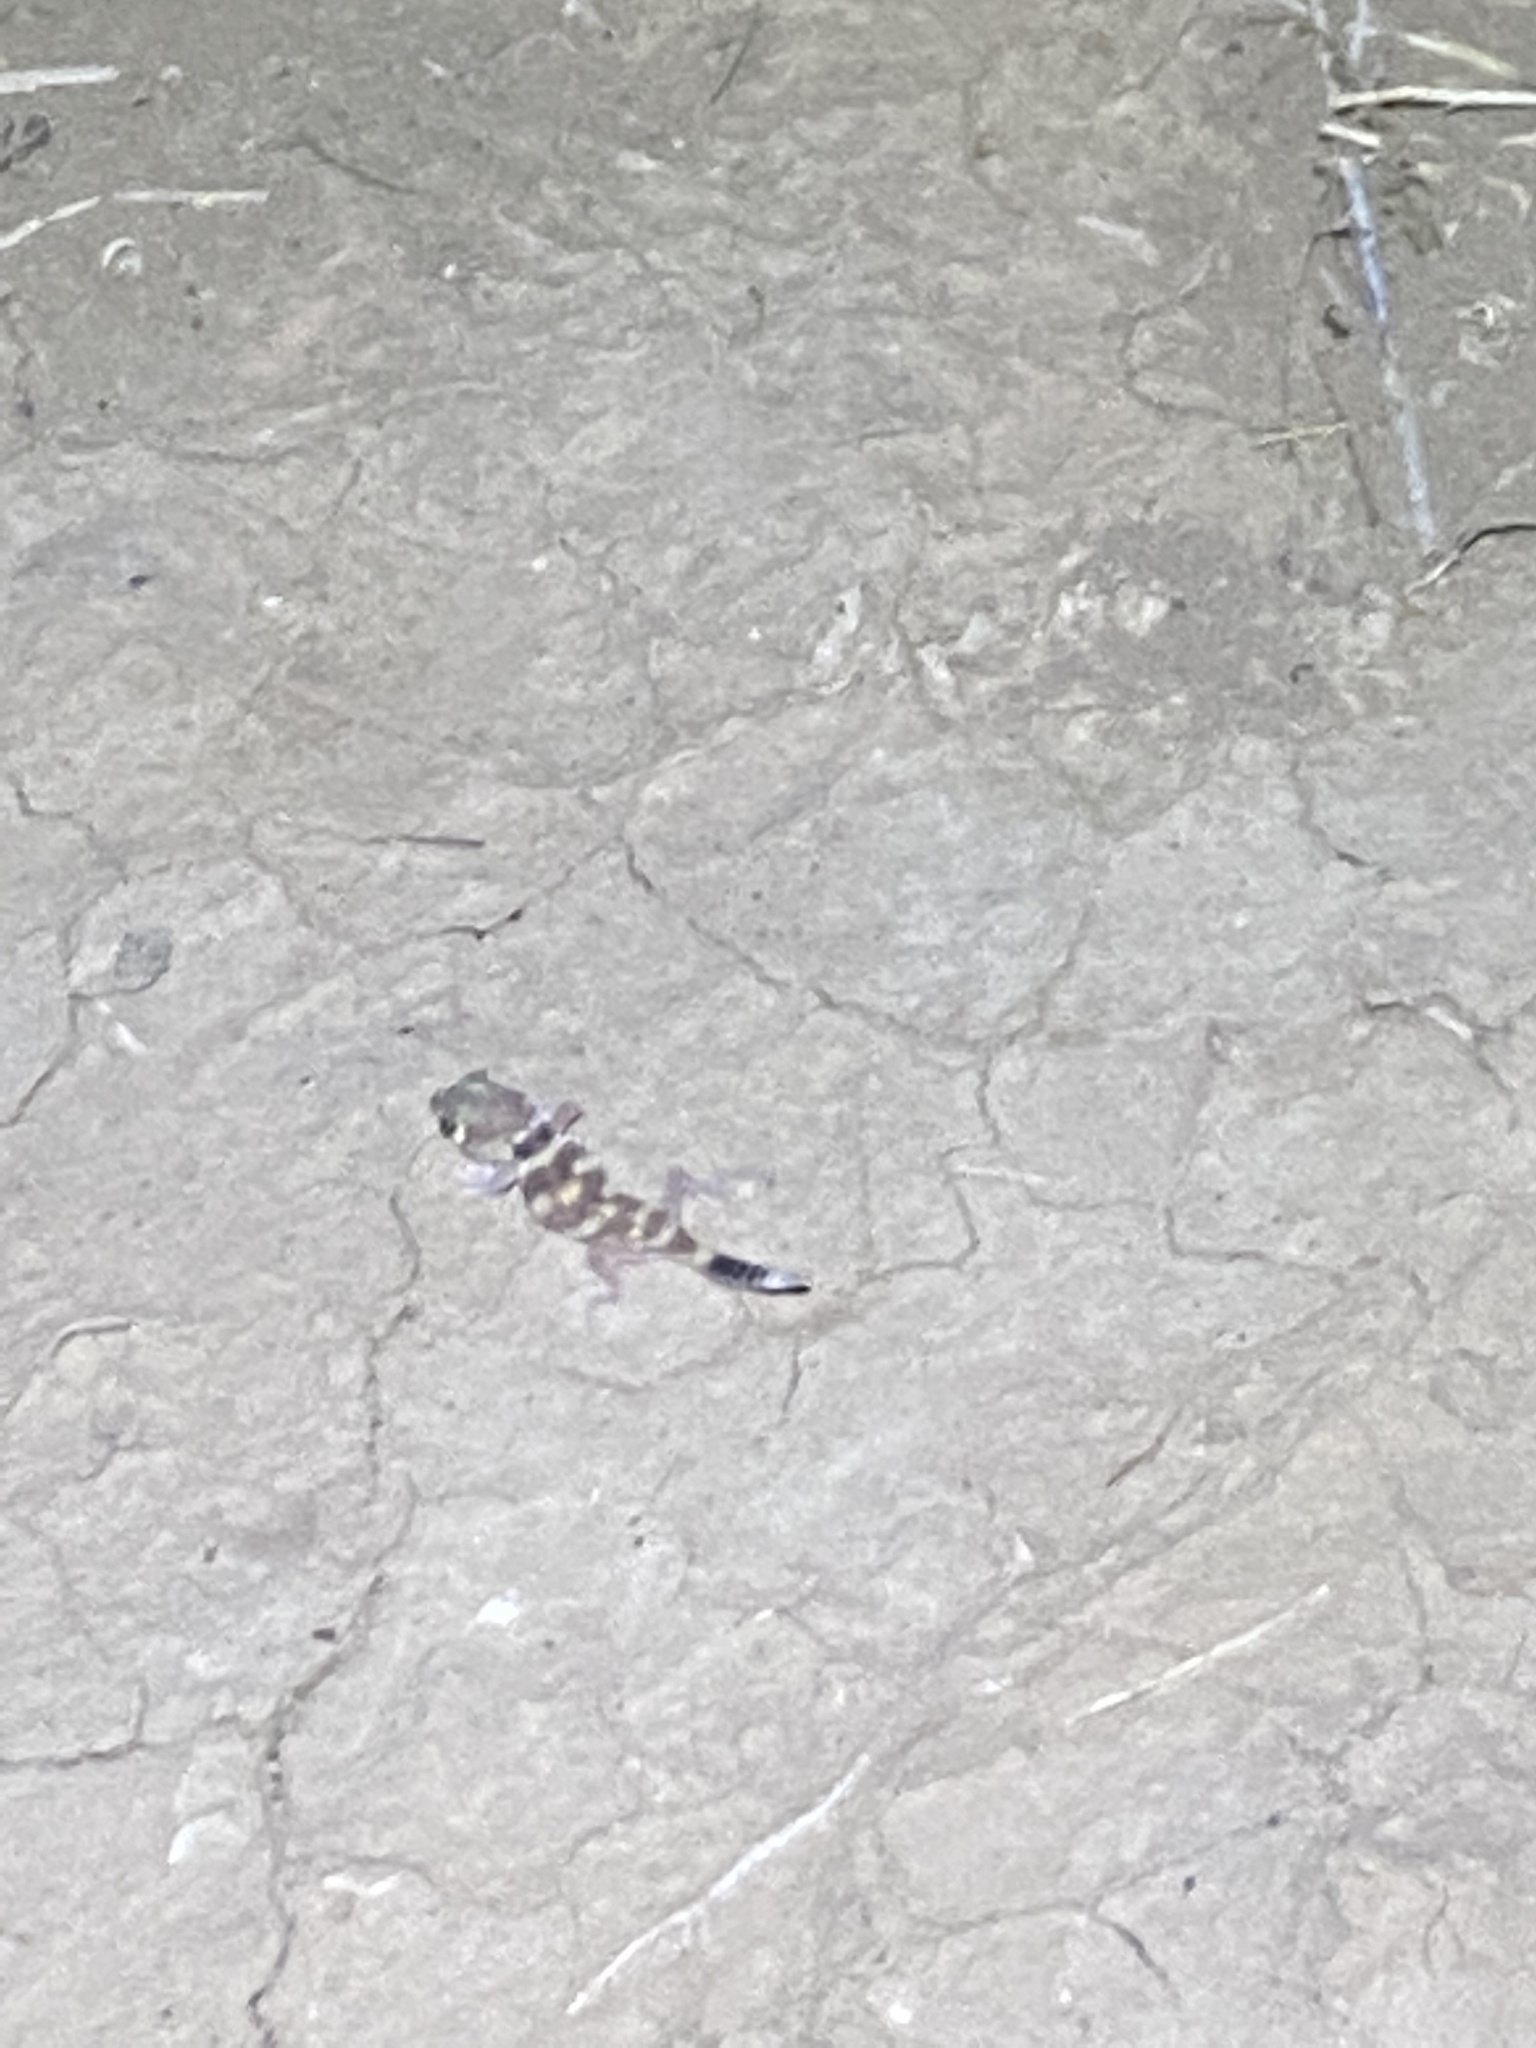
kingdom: Animalia
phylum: Chordata
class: Squamata
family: Sphaerodactylidae
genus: Teratoscincus
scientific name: Teratoscincus bedriagai
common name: Bedriaga's plate-tailed gecko
